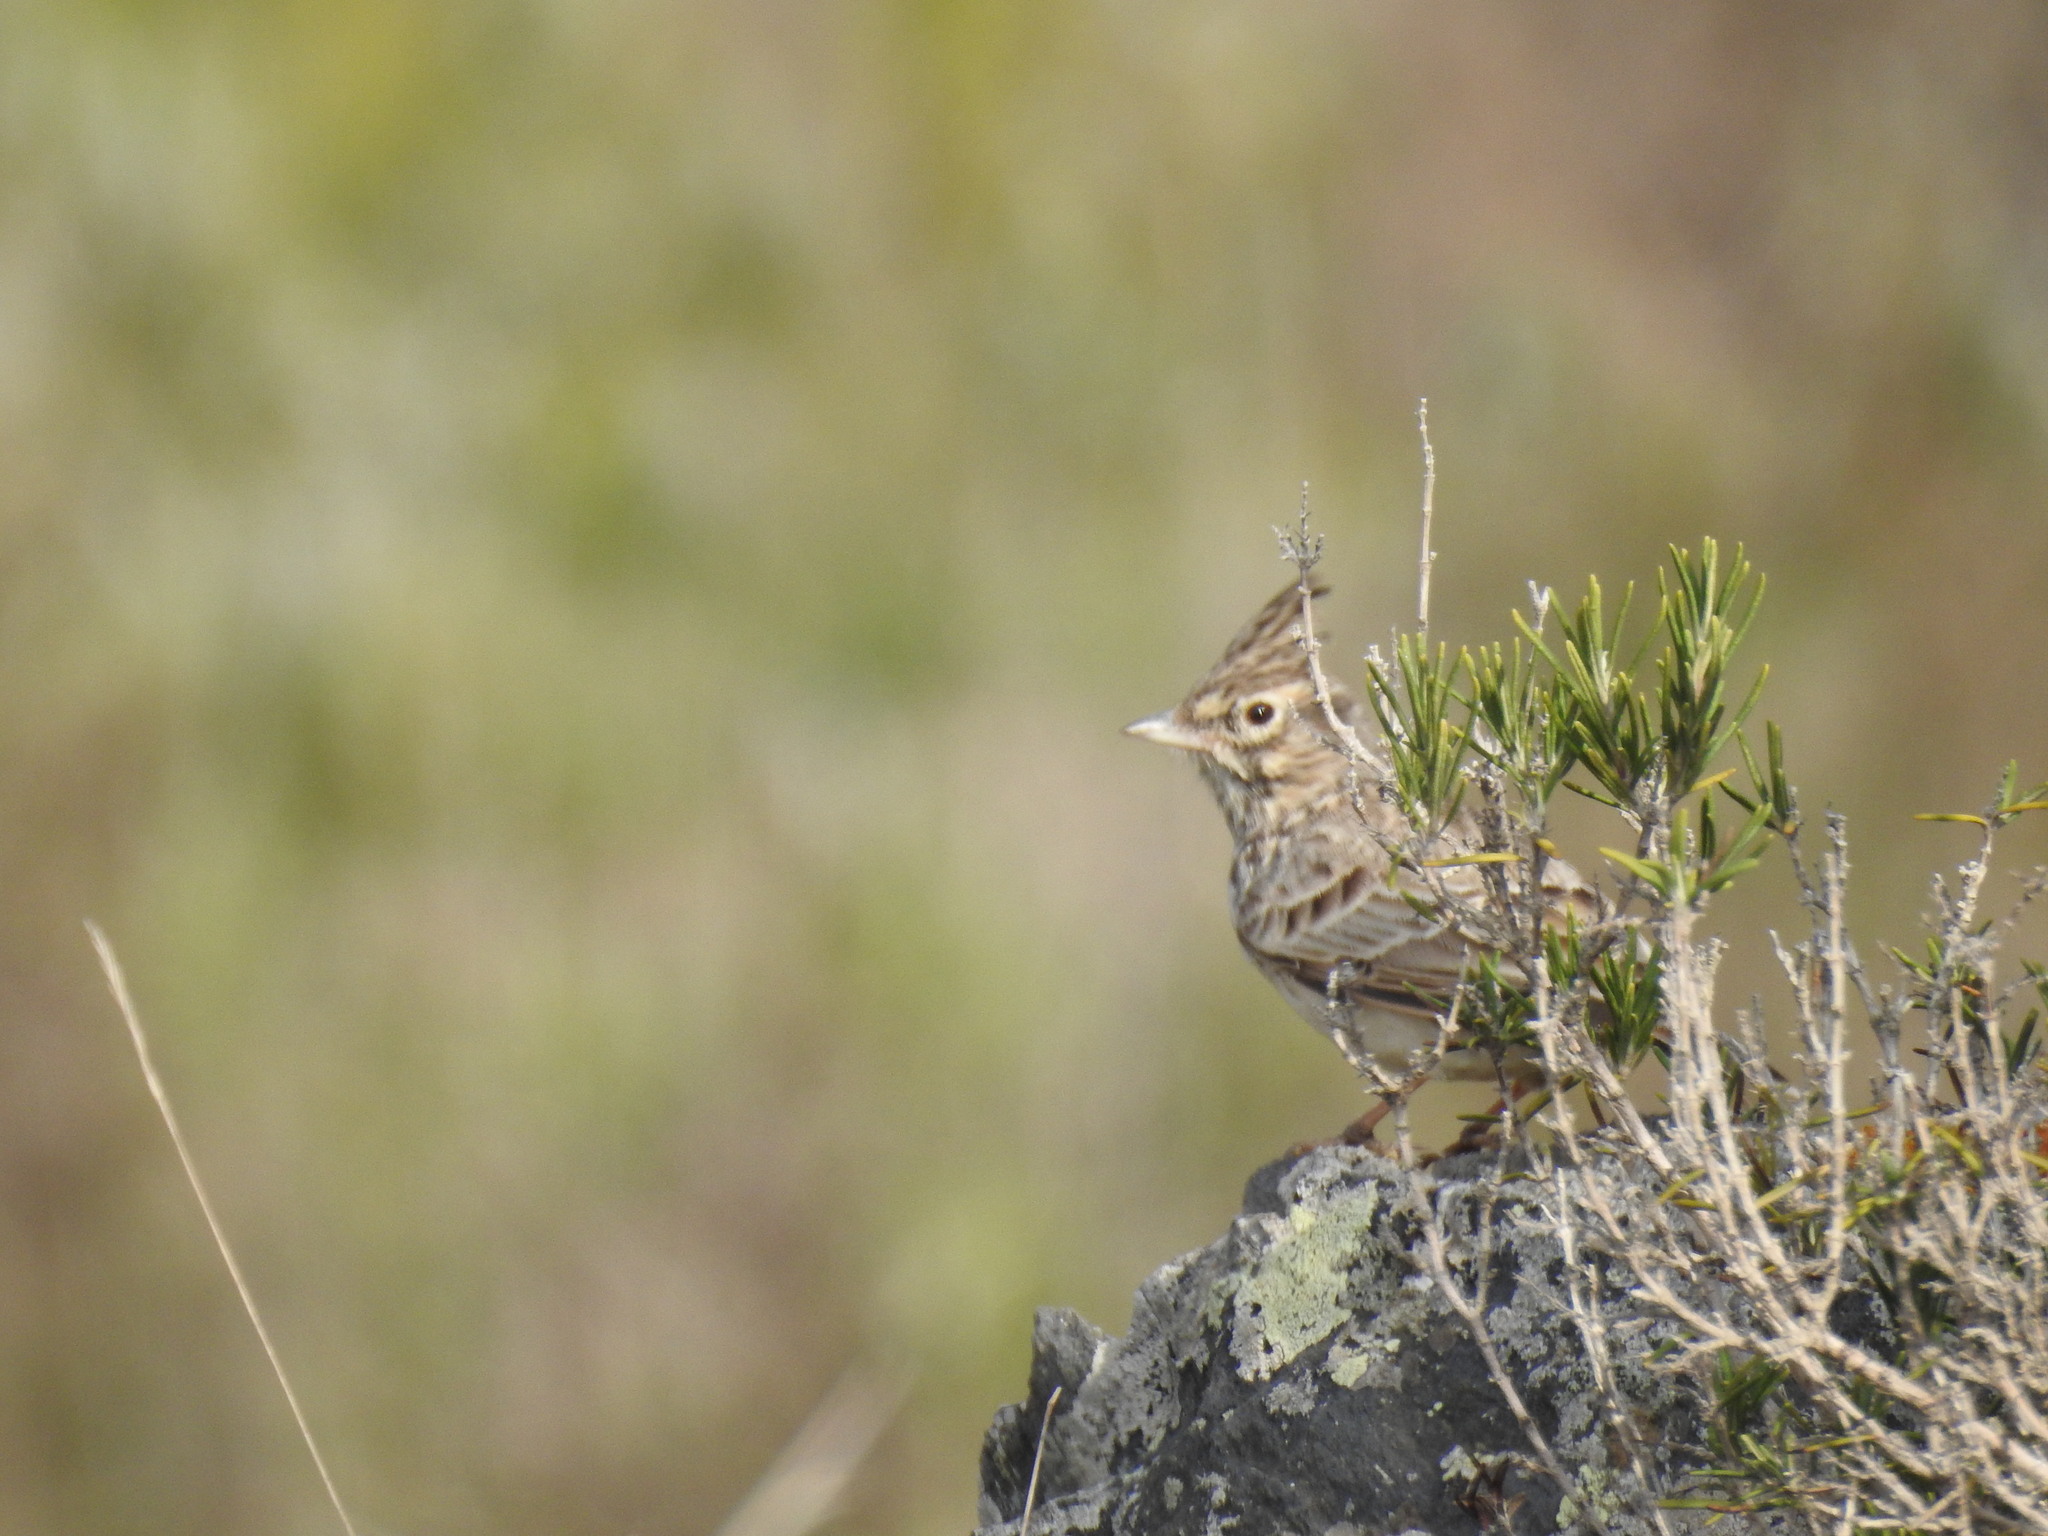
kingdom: Animalia
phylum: Chordata
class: Aves
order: Passeriformes
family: Alaudidae
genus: Galerida
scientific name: Galerida theklae
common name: Thekla lark
